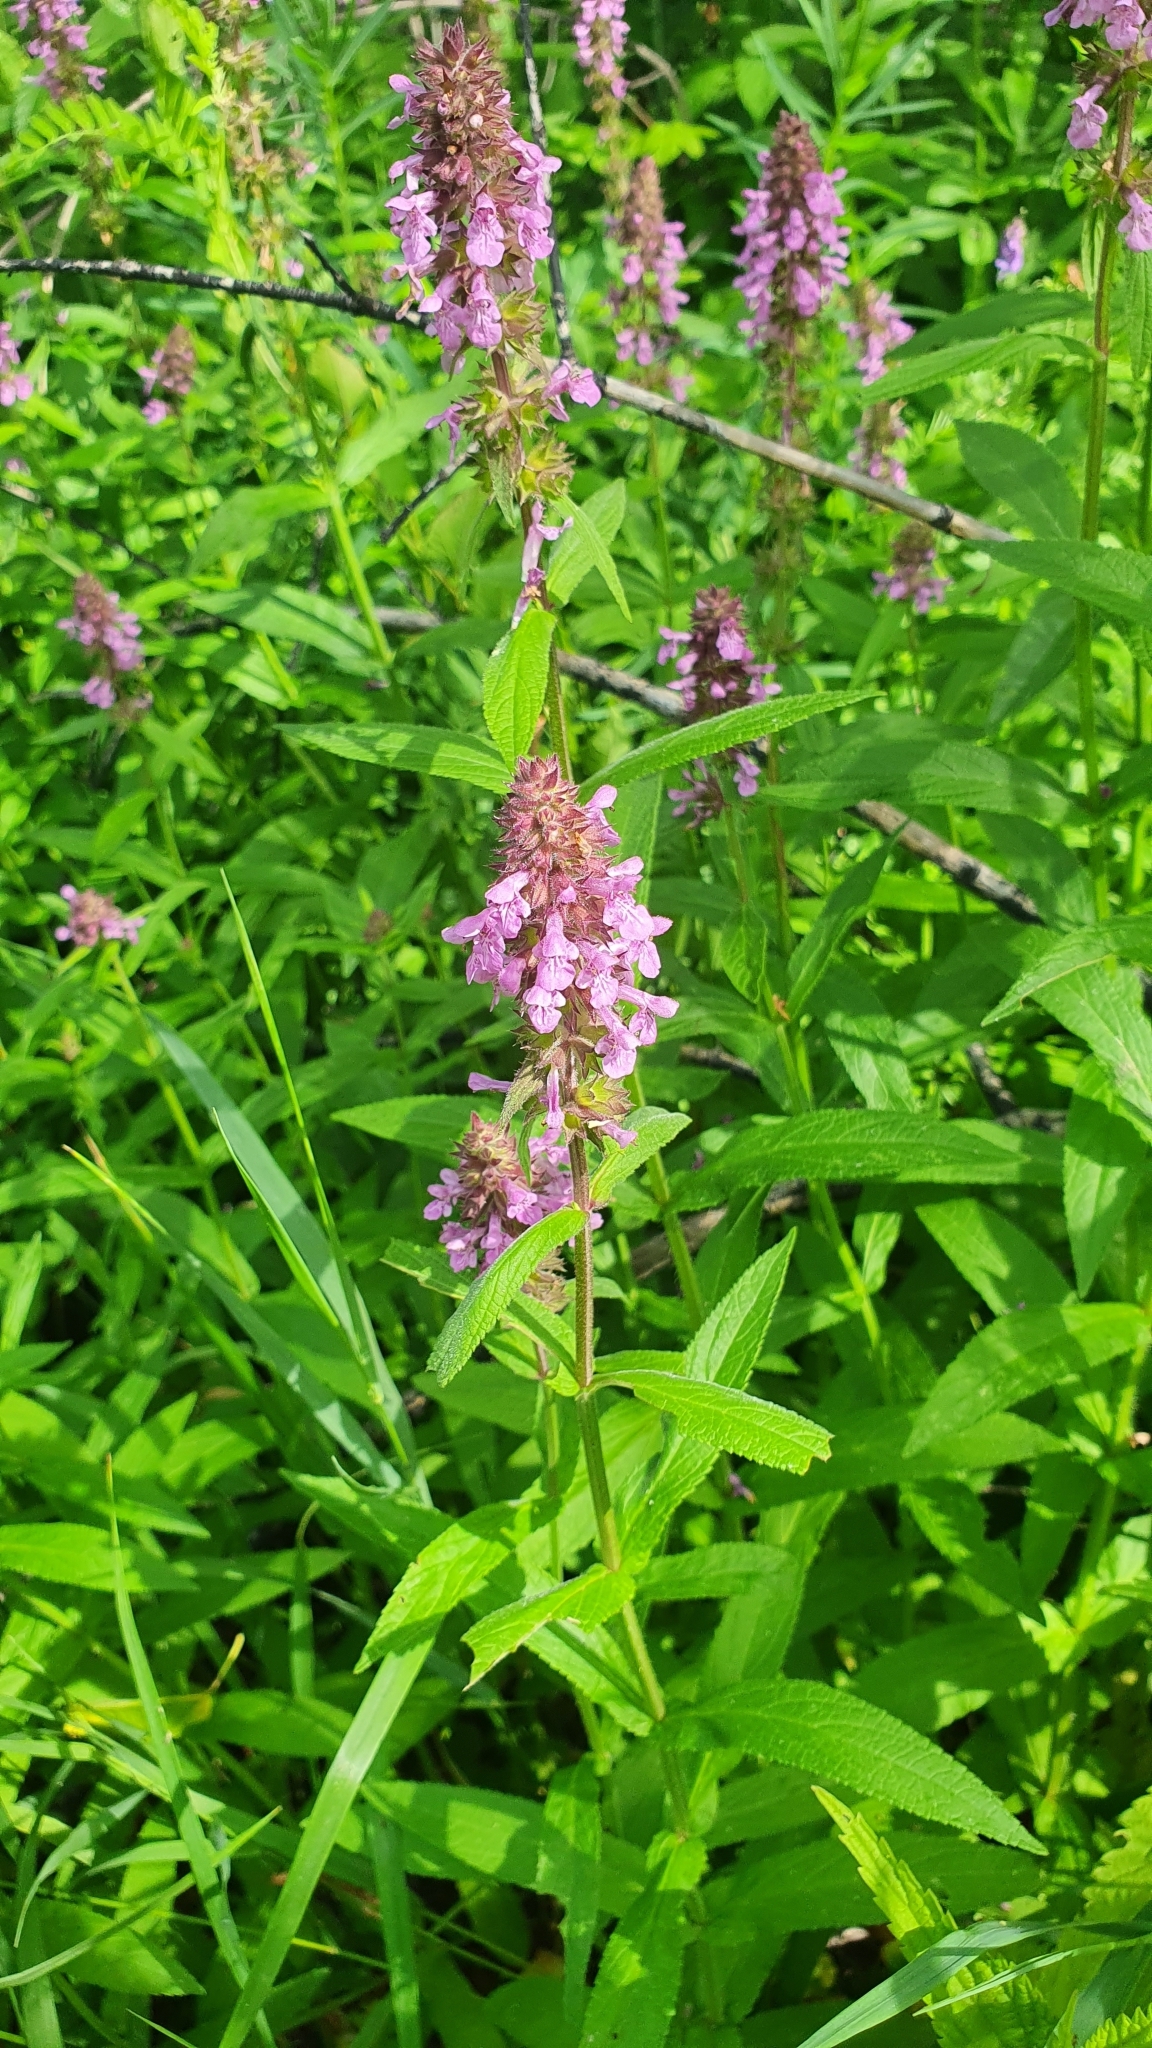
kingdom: Plantae
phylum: Tracheophyta
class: Magnoliopsida
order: Lamiales
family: Lamiaceae
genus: Stachys
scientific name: Stachys palustris
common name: Marsh woundwort
